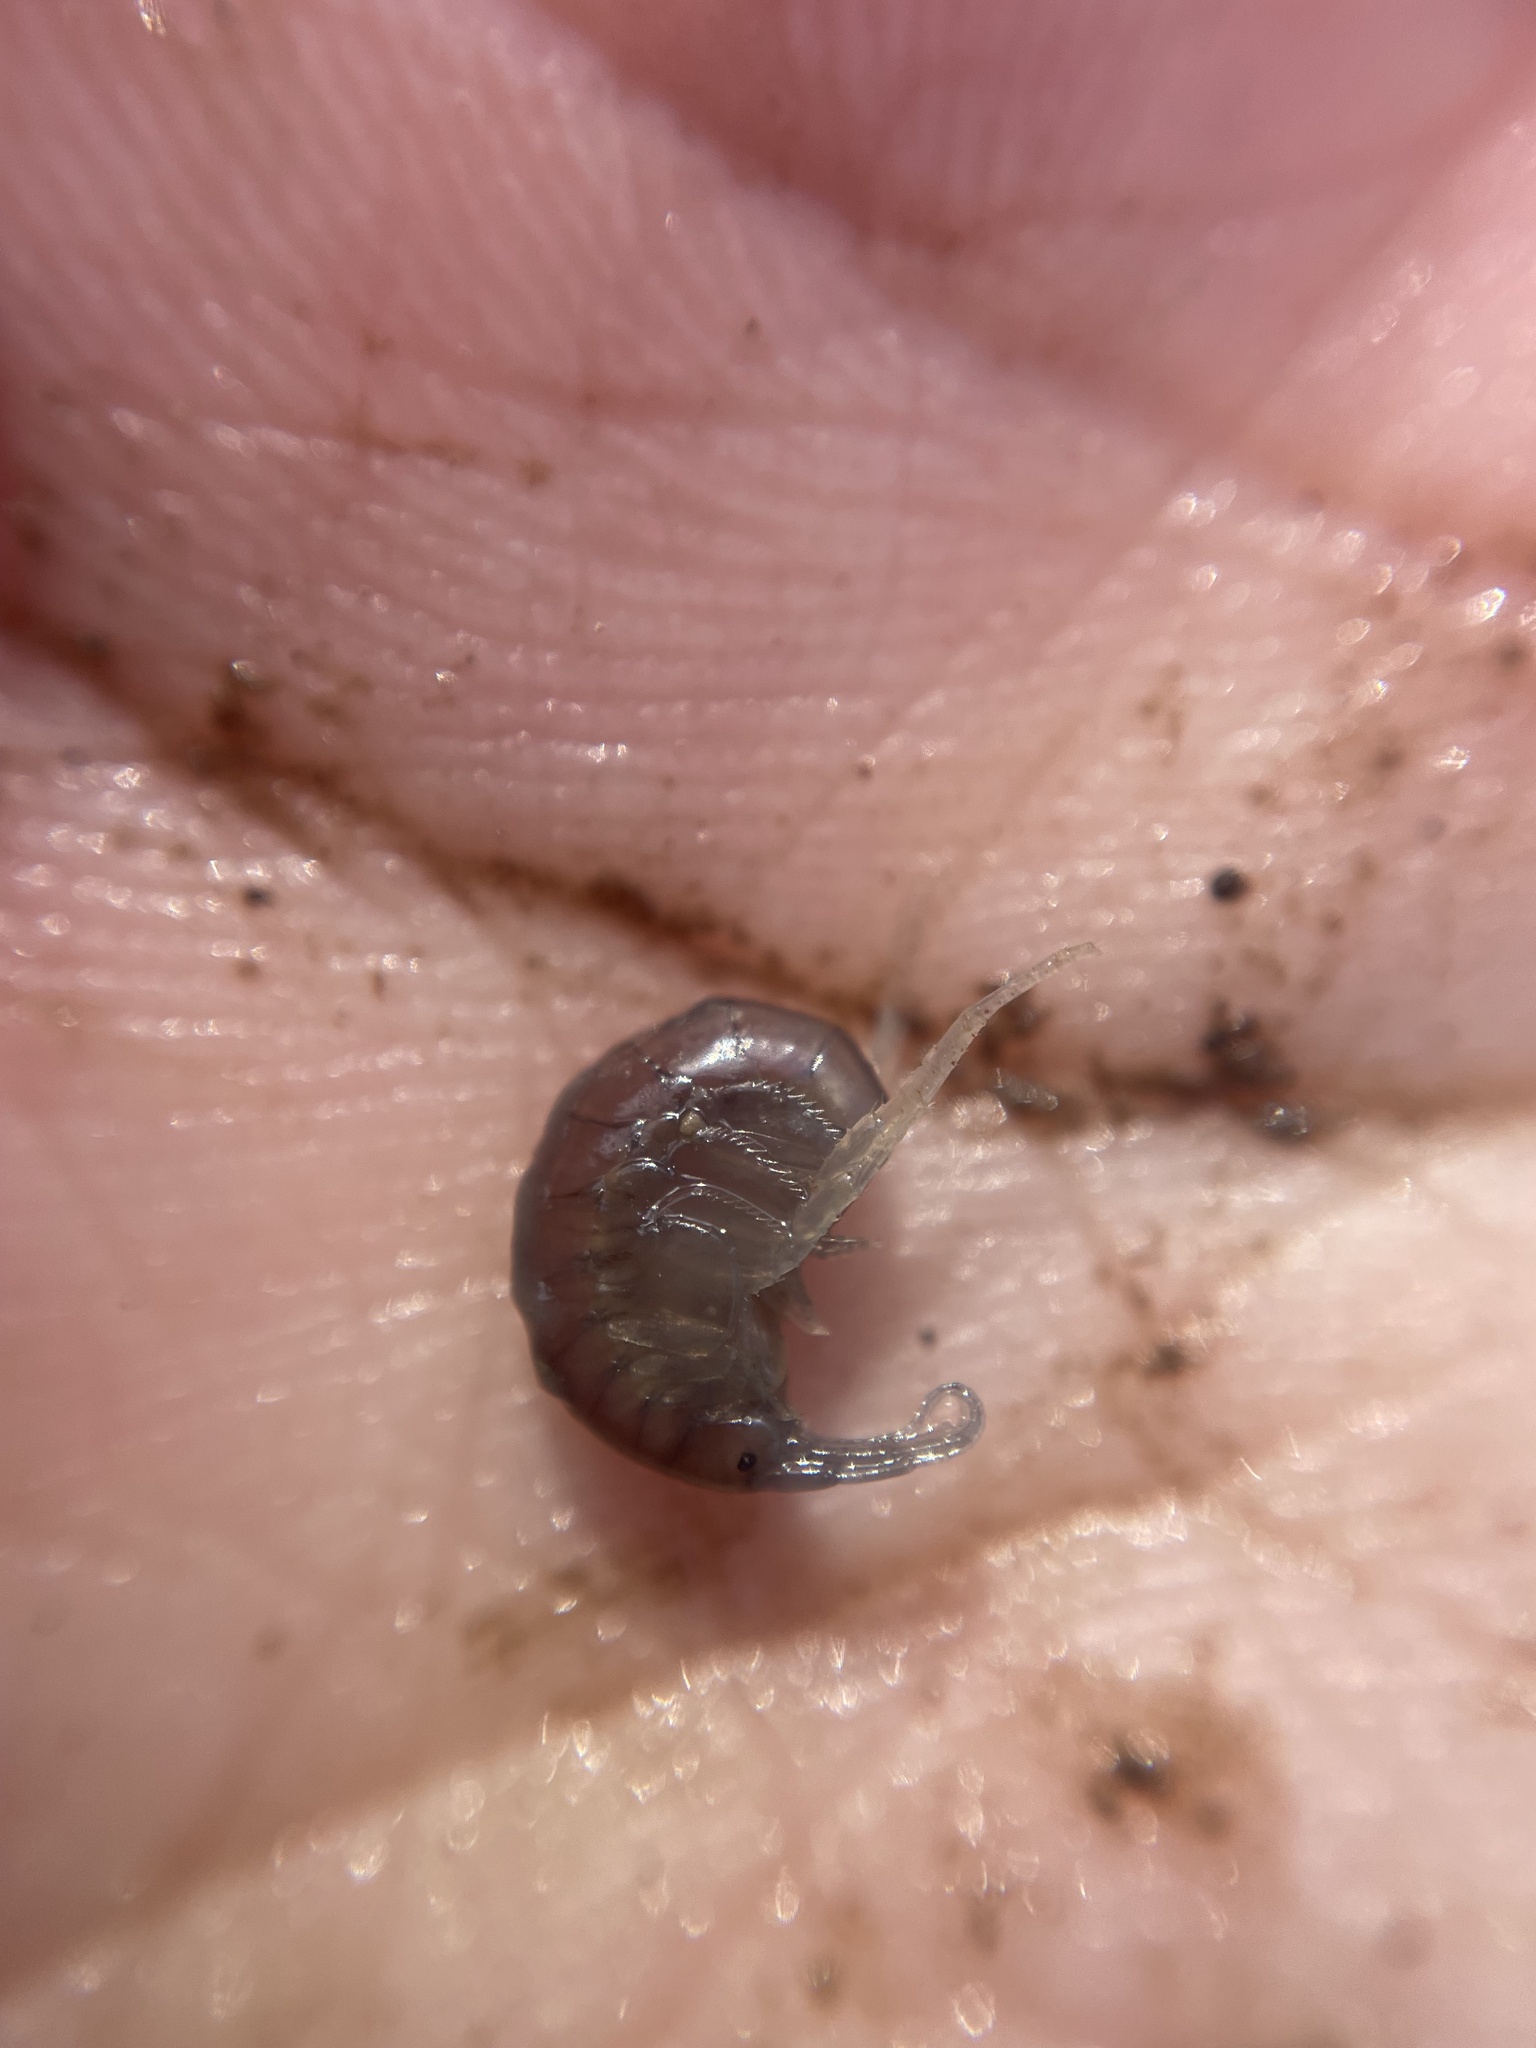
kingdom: Animalia
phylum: Arthropoda
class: Malacostraca
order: Amphipoda
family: Crangonyctidae
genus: Crangonyx
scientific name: Crangonyx serratus
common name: Serrate crangonyctid
